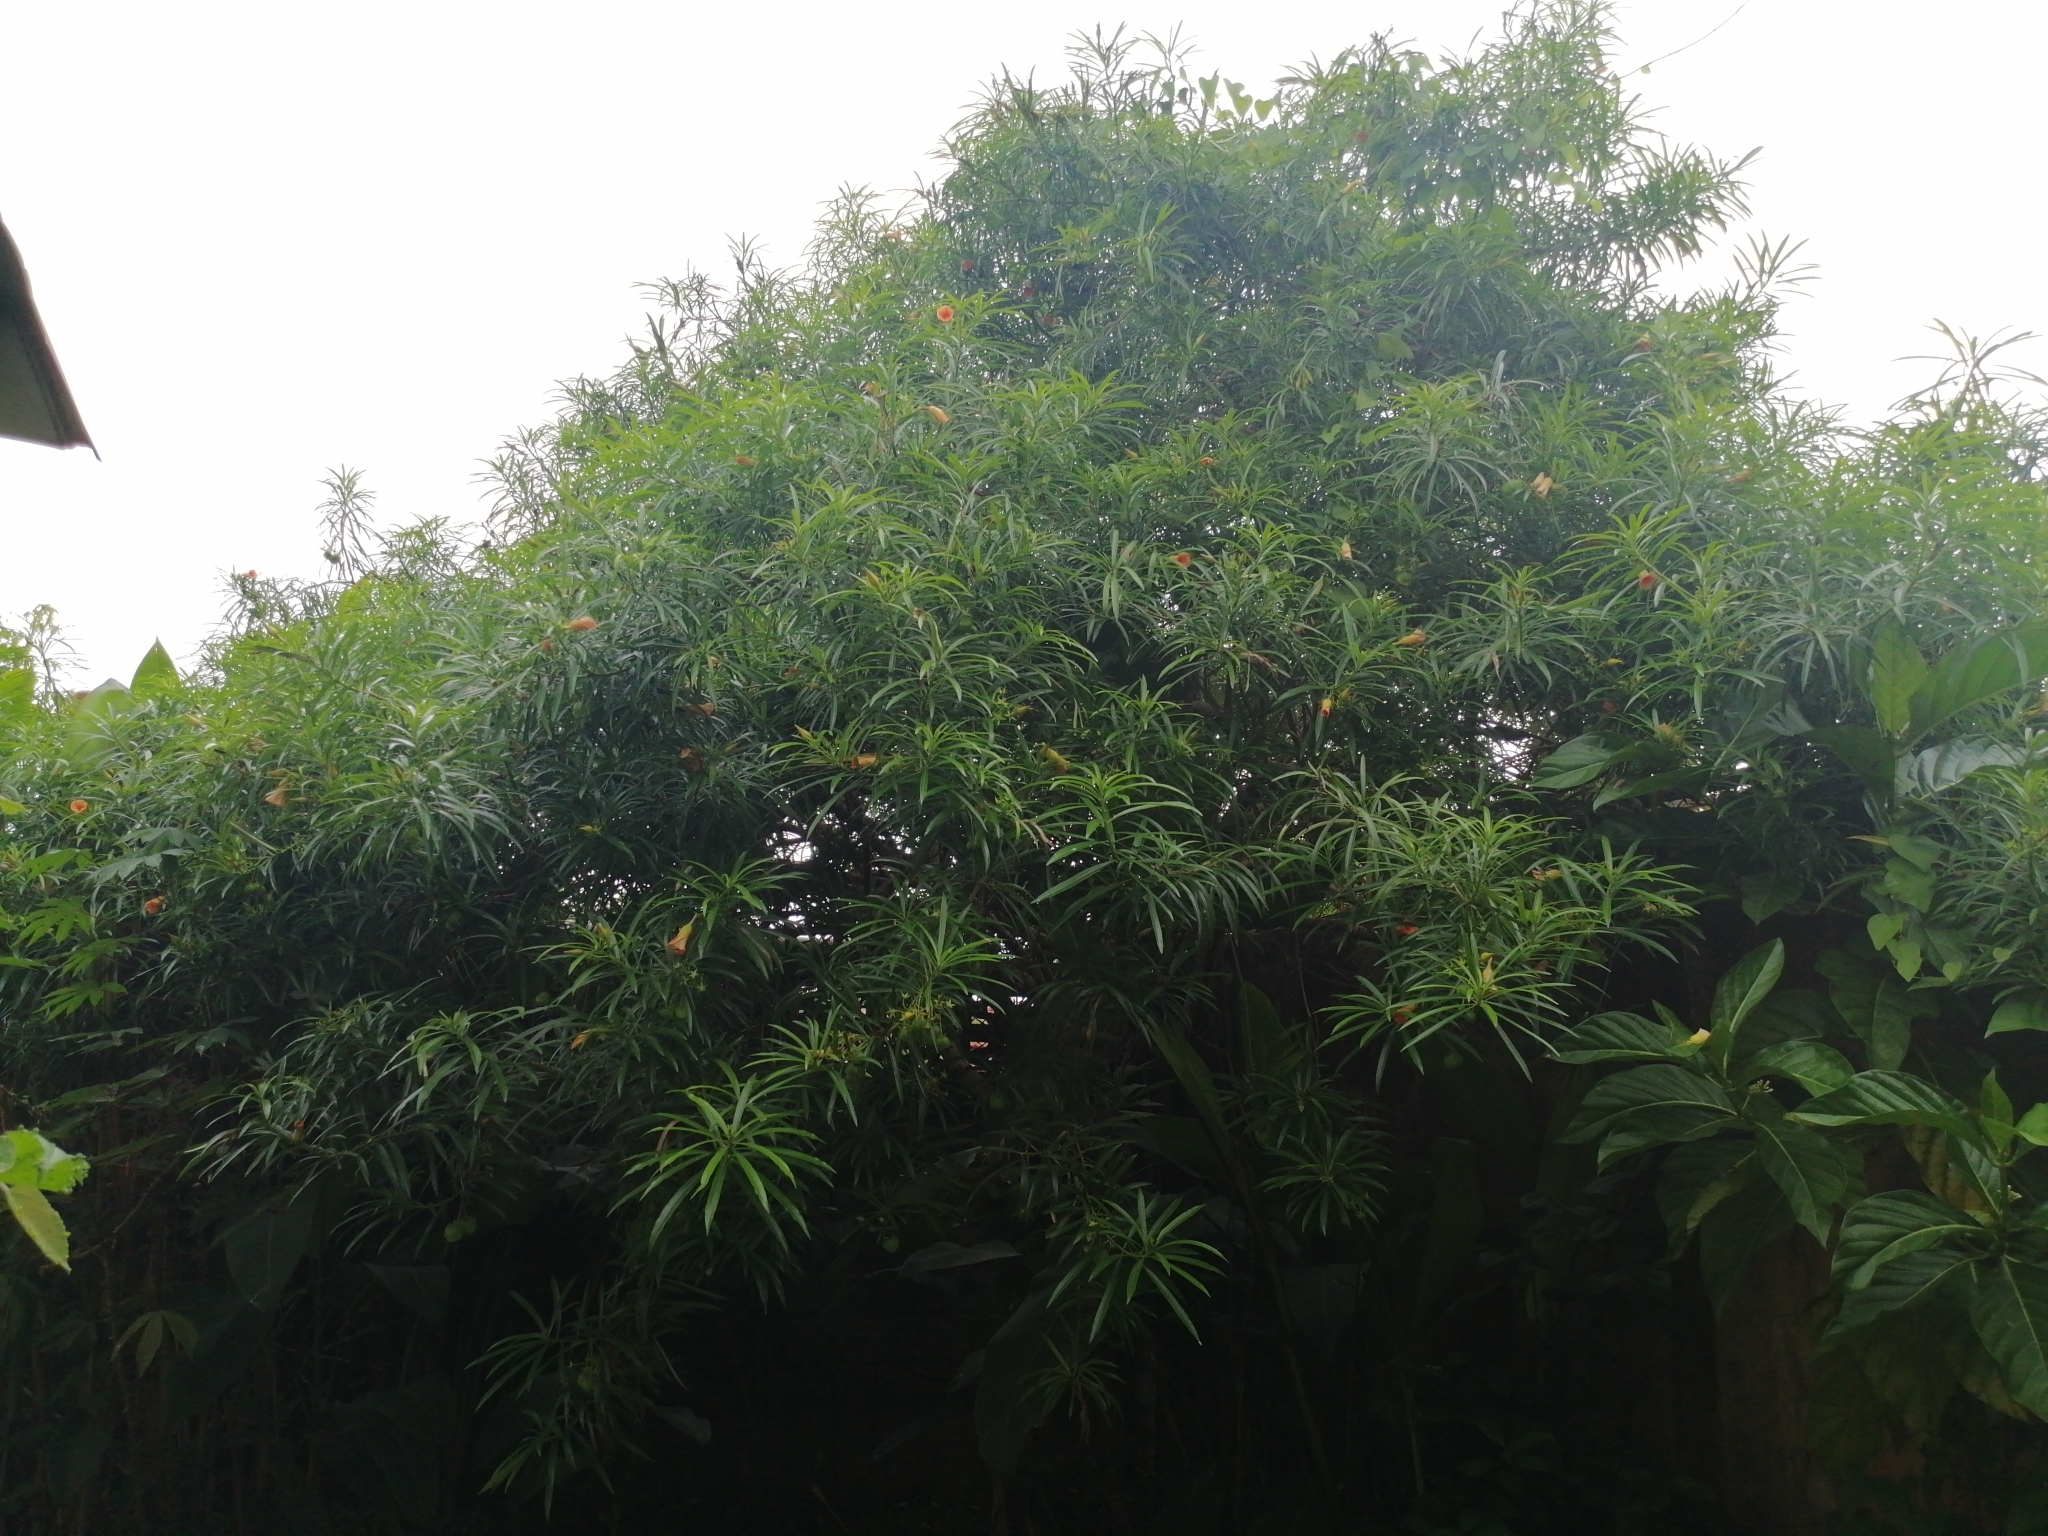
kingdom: Plantae
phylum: Tracheophyta
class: Magnoliopsida
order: Gentianales
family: Apocynaceae
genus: Cascabela
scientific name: Cascabela thevetia
